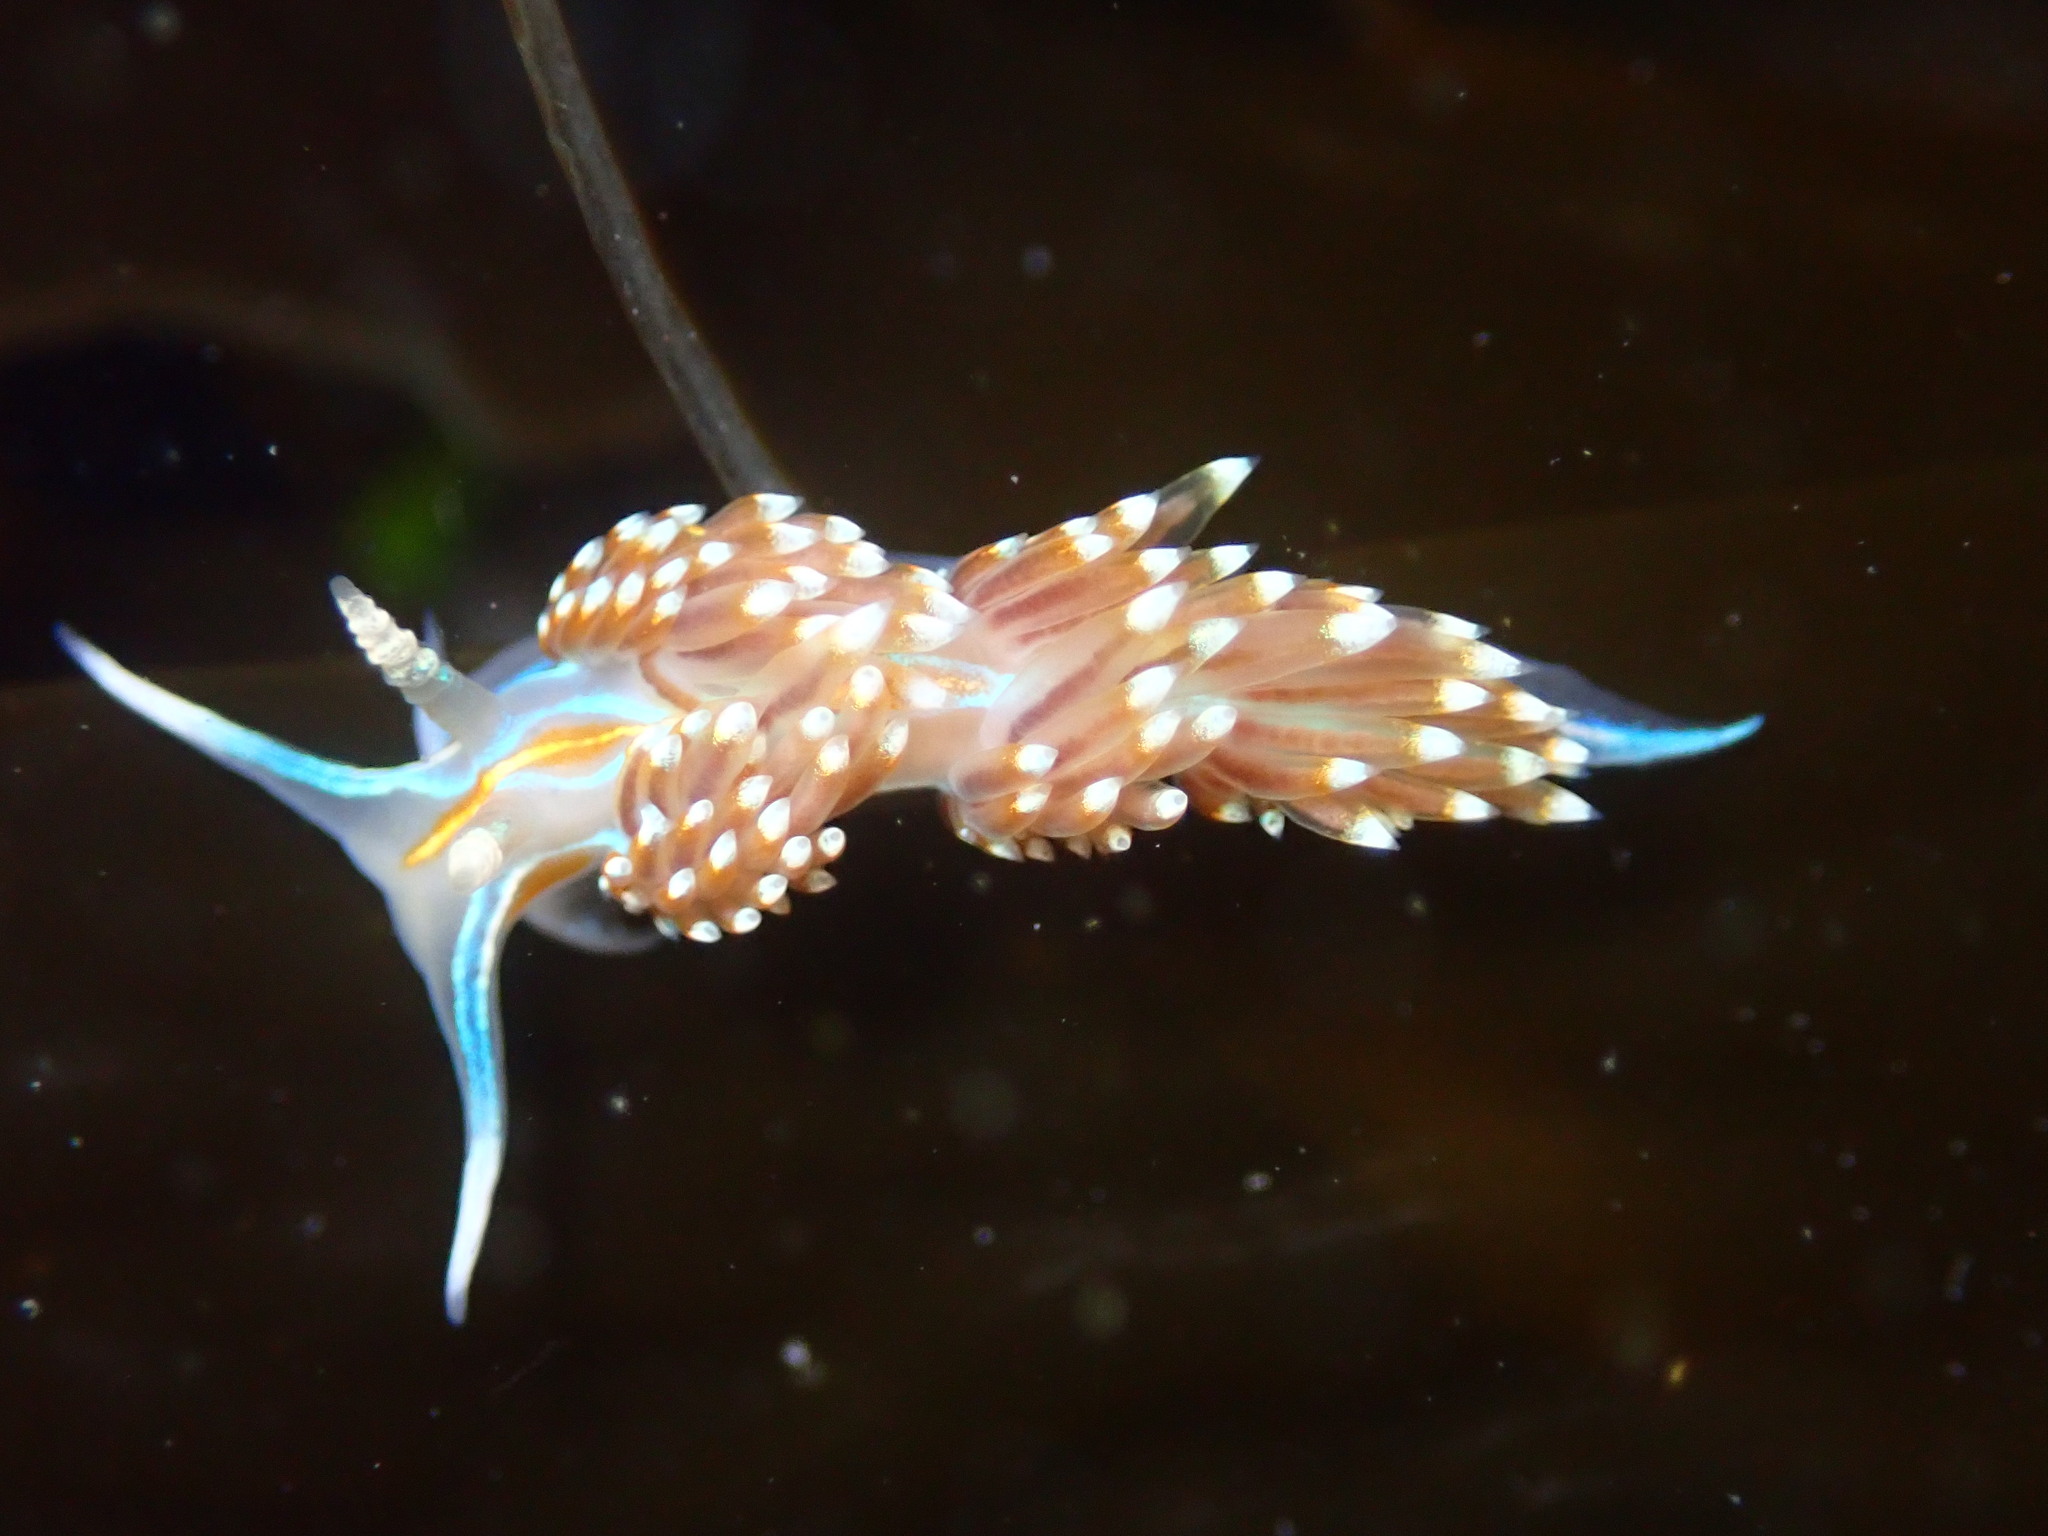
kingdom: Animalia
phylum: Mollusca
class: Gastropoda
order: Nudibranchia
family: Myrrhinidae
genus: Hermissenda
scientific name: Hermissenda opalescens
